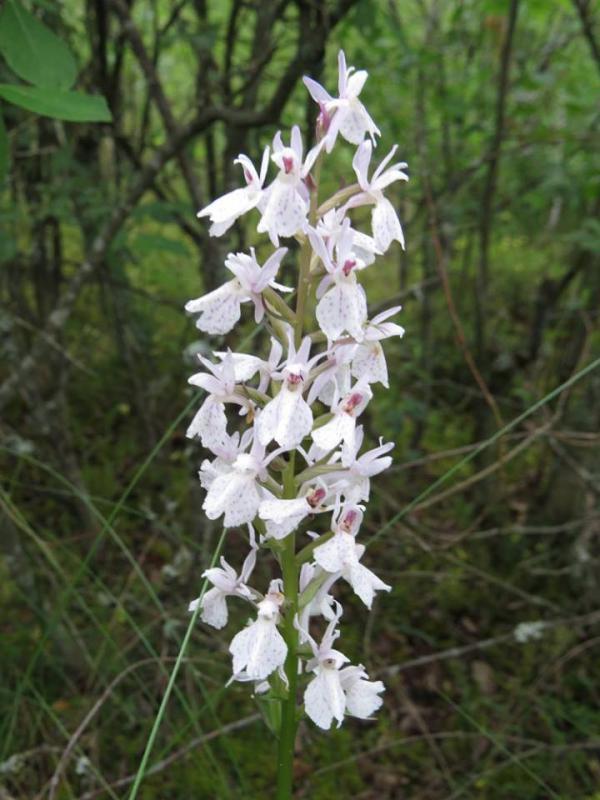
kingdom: Plantae
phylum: Tracheophyta
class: Liliopsida
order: Asparagales
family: Orchidaceae
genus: Dactylorhiza
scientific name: Dactylorhiza maculata
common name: Heath spotted-orchid
